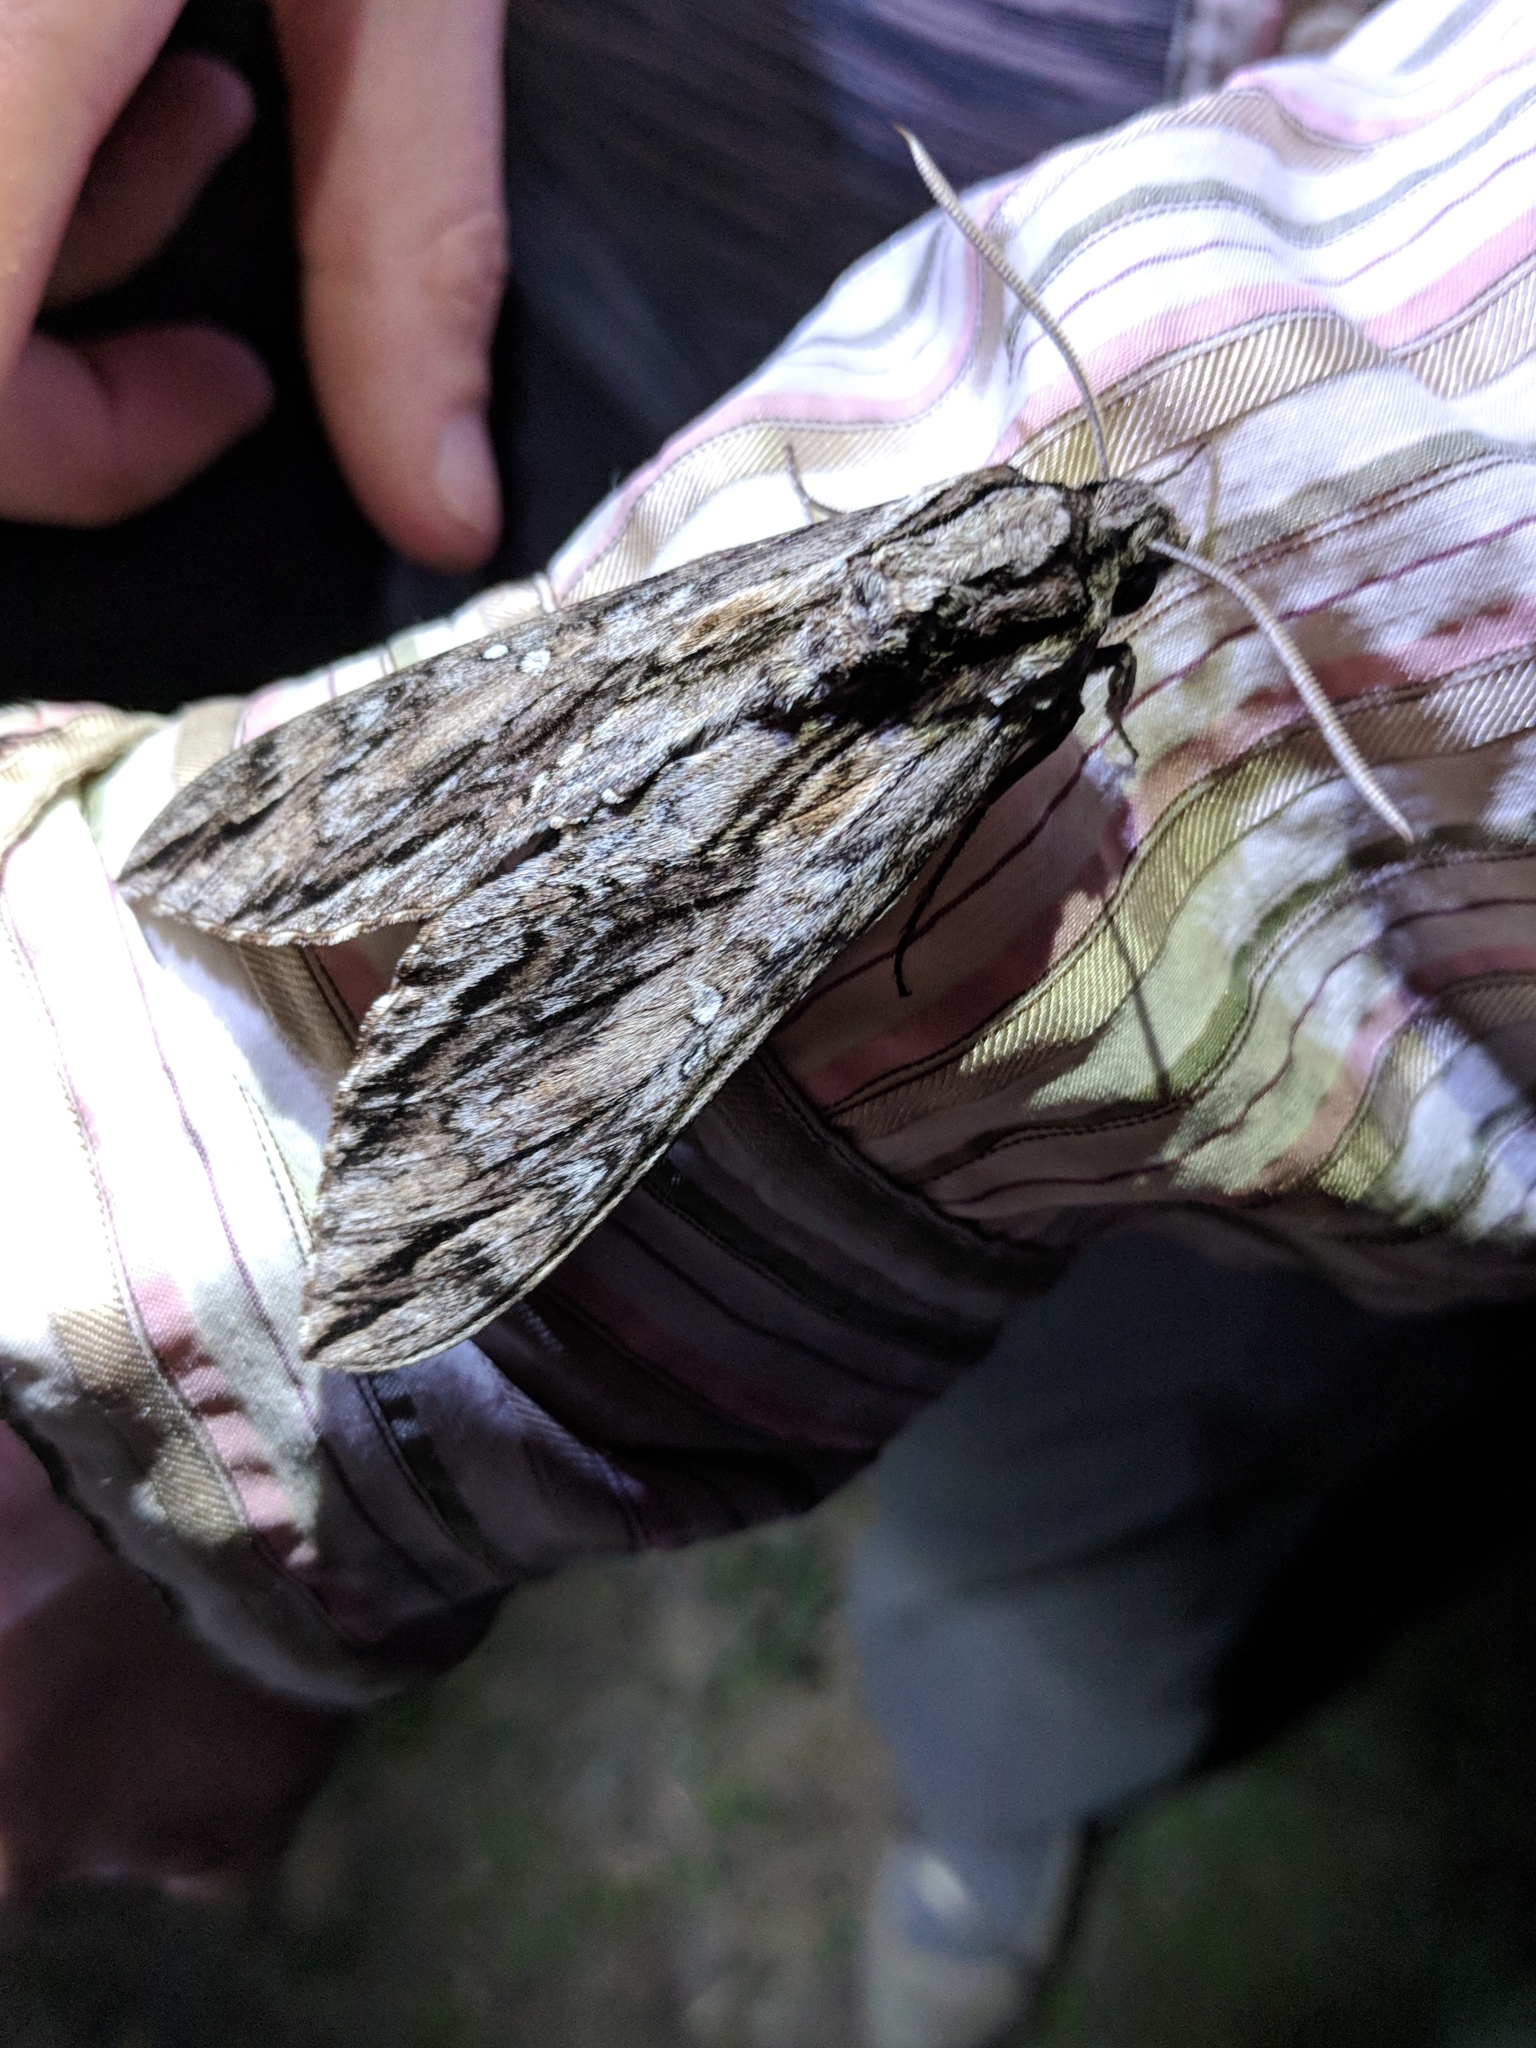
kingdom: Animalia
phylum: Arthropoda
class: Insecta
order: Lepidoptera
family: Sphingidae
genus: Lintneria
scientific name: Lintneria istar
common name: Istar sphinx
